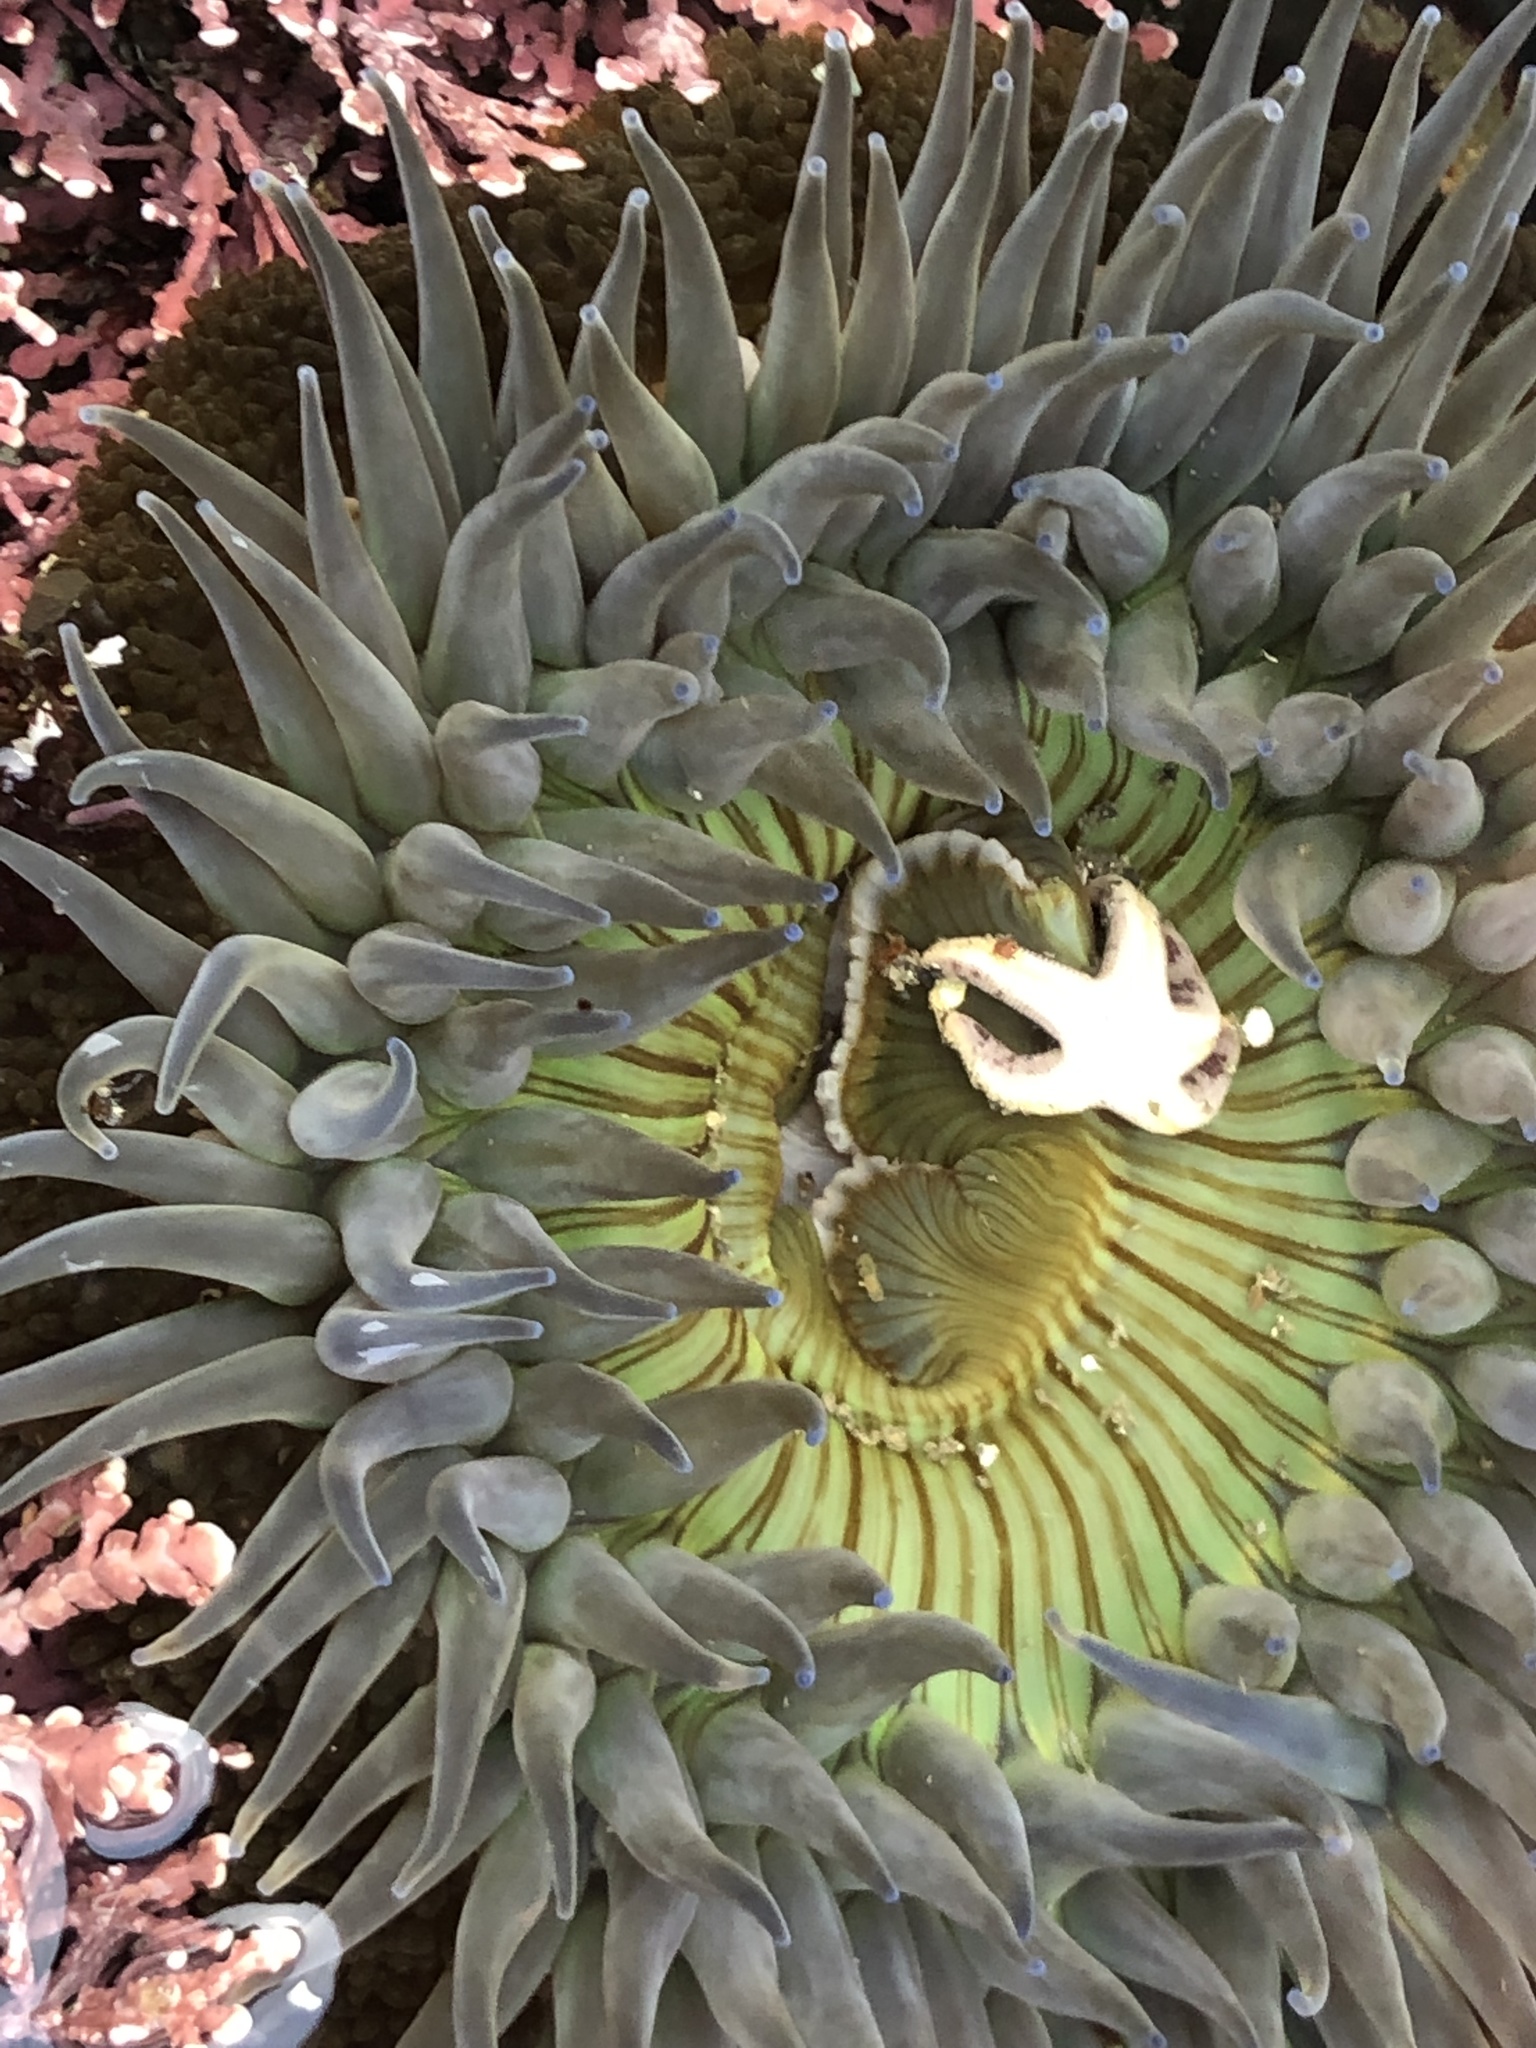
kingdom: Animalia
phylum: Cnidaria
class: Anthozoa
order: Actiniaria
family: Actiniidae
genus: Anthopleura
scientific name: Anthopleura sola
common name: Sun anemone
